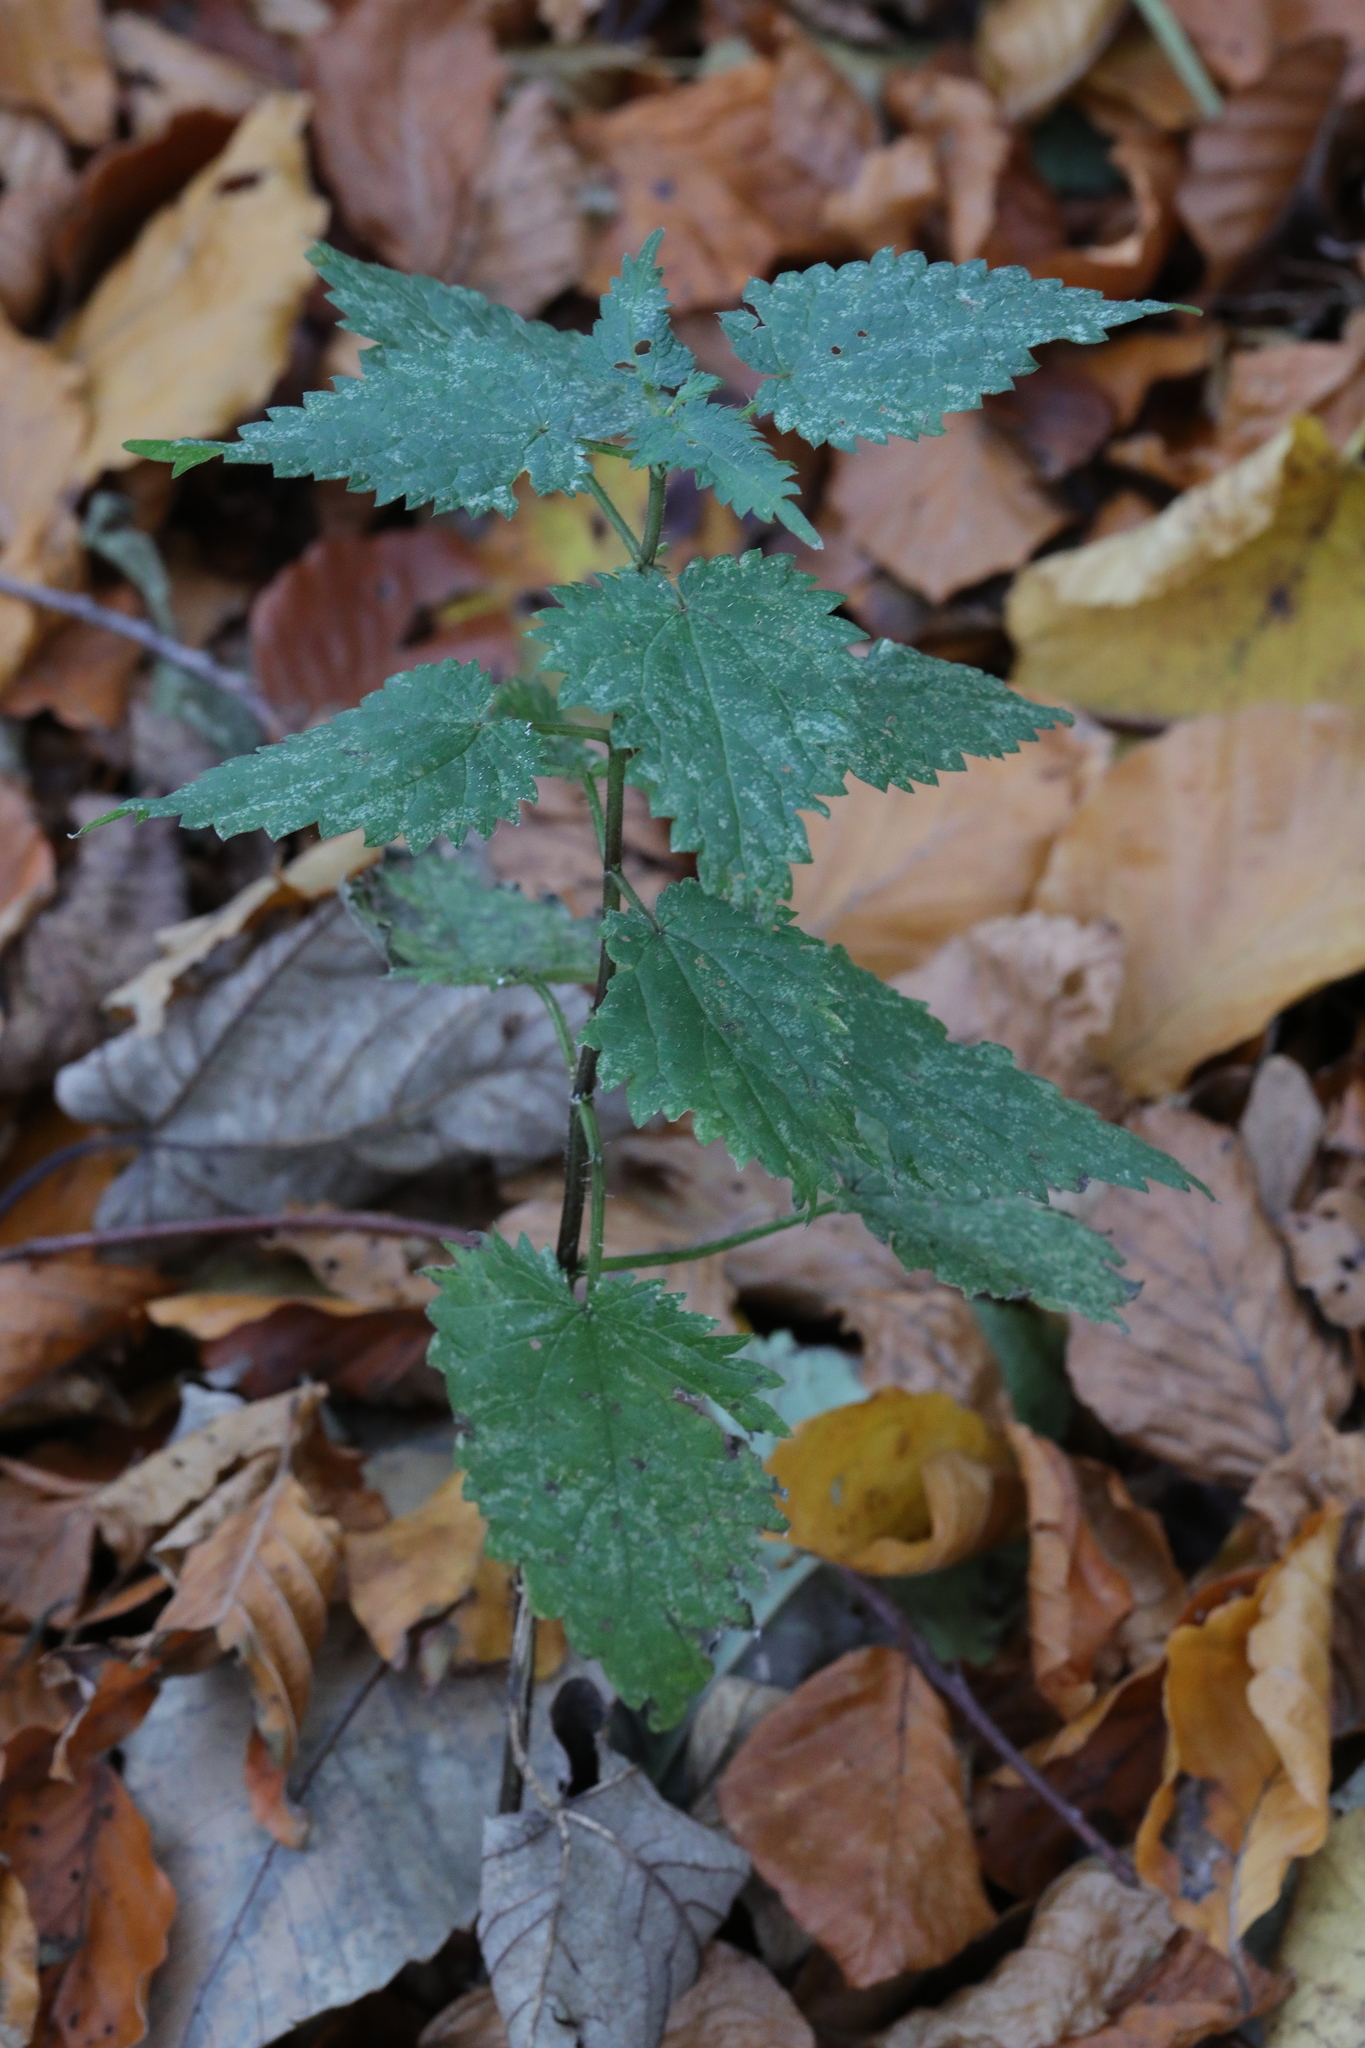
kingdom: Plantae
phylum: Tracheophyta
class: Magnoliopsida
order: Rosales
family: Urticaceae
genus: Urtica
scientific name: Urtica dioica
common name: Common nettle
